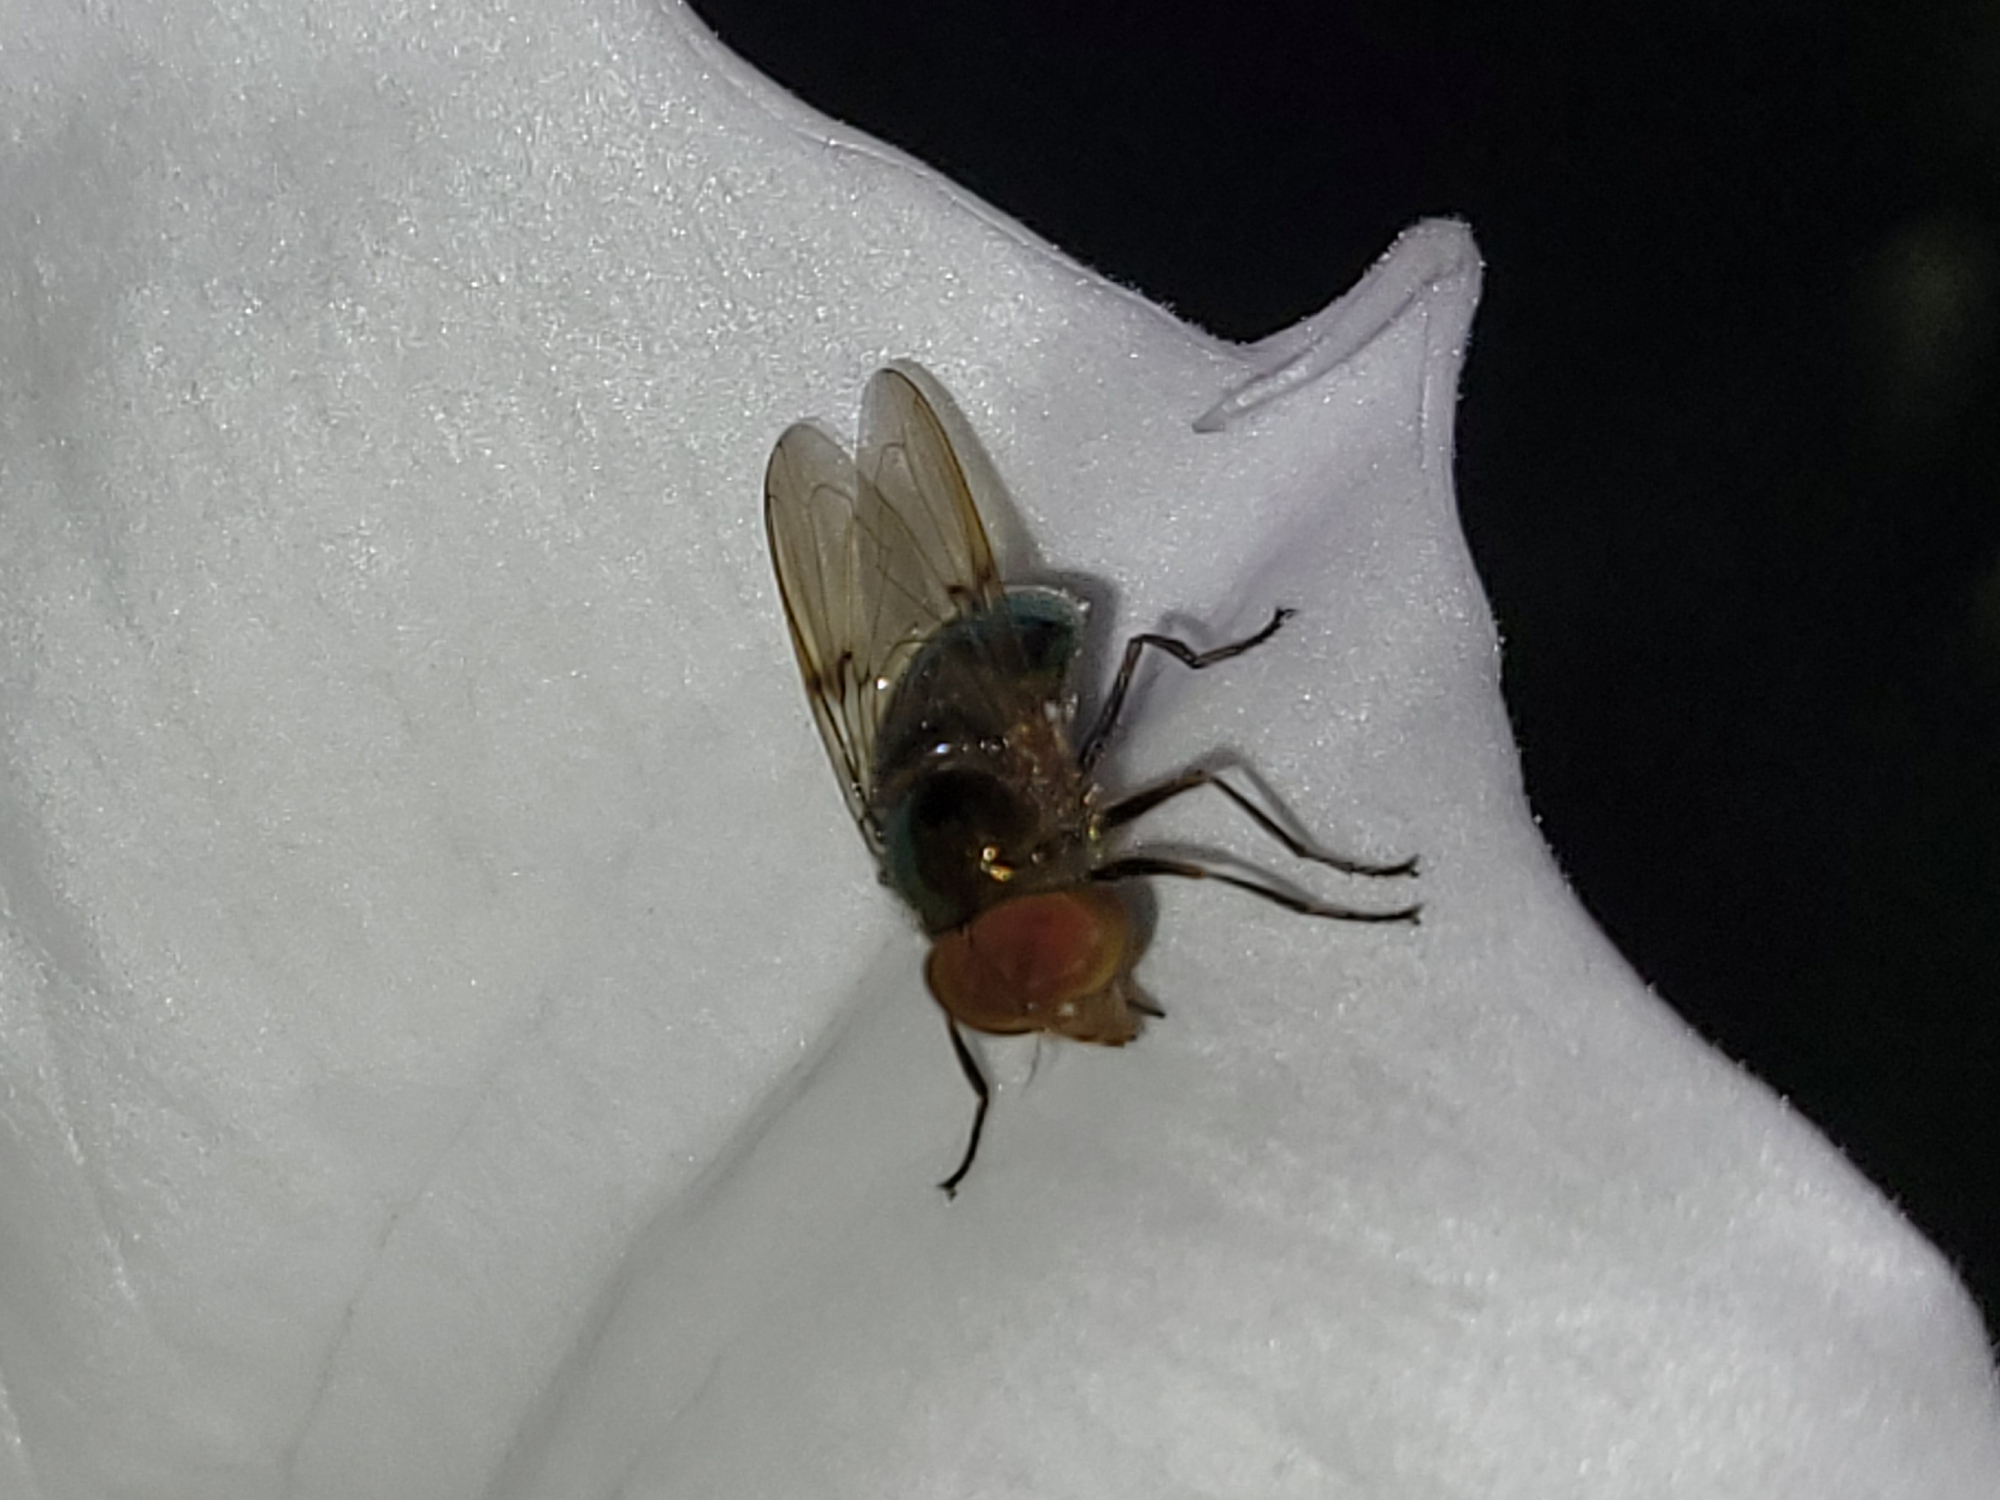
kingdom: Animalia
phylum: Arthropoda
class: Insecta
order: Diptera
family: Syrphidae
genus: Copestylum
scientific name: Copestylum vesicularium
